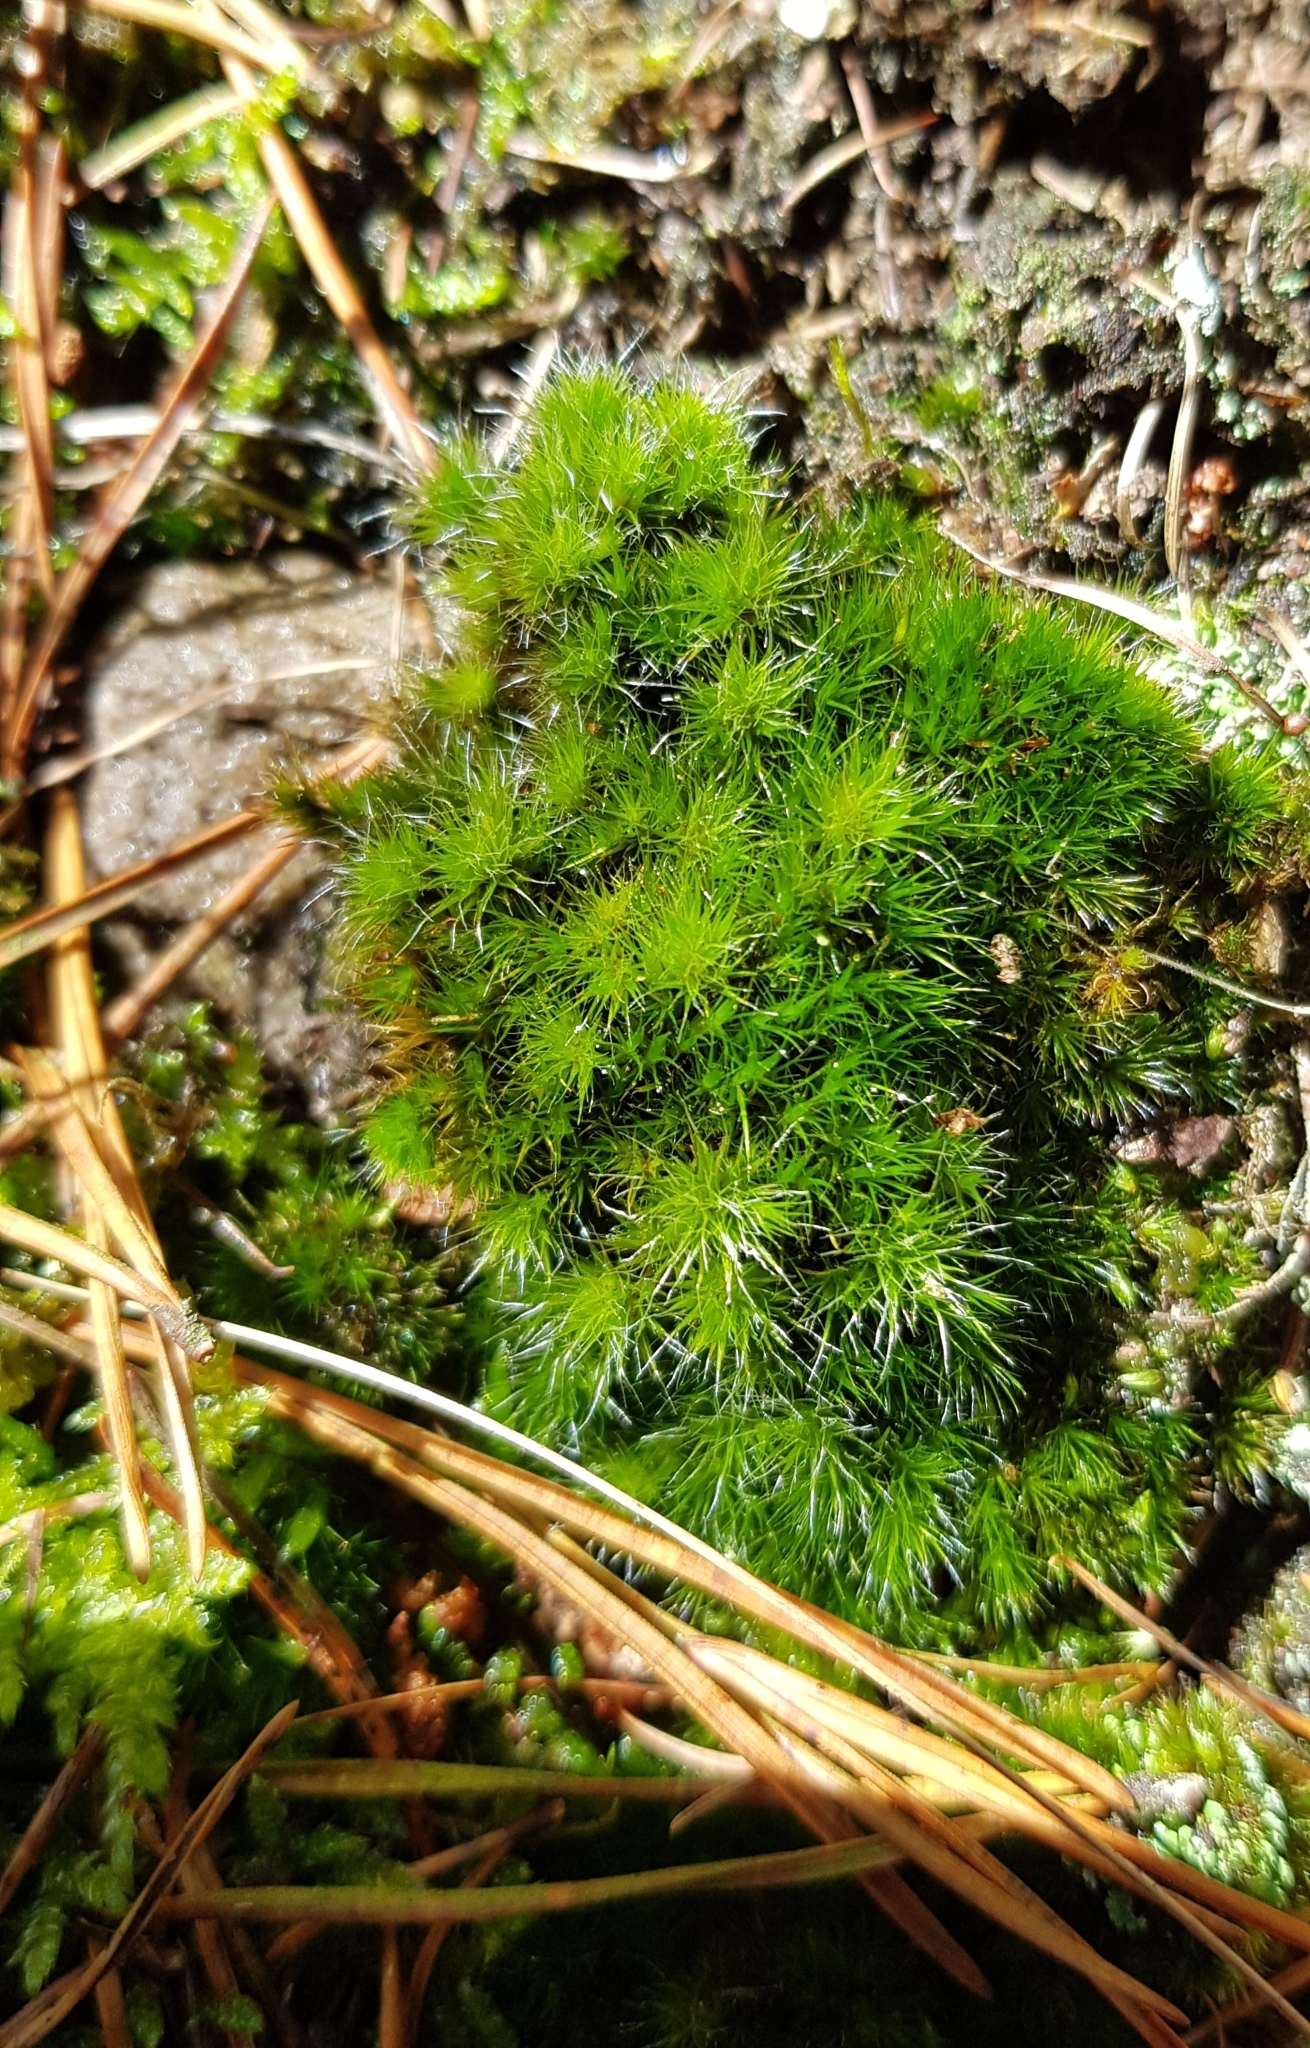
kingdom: Plantae
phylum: Bryophyta
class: Bryopsida
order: Dicranales
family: Leucobryaceae
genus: Campylopus
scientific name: Campylopus introflexus
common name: Heath star moss
